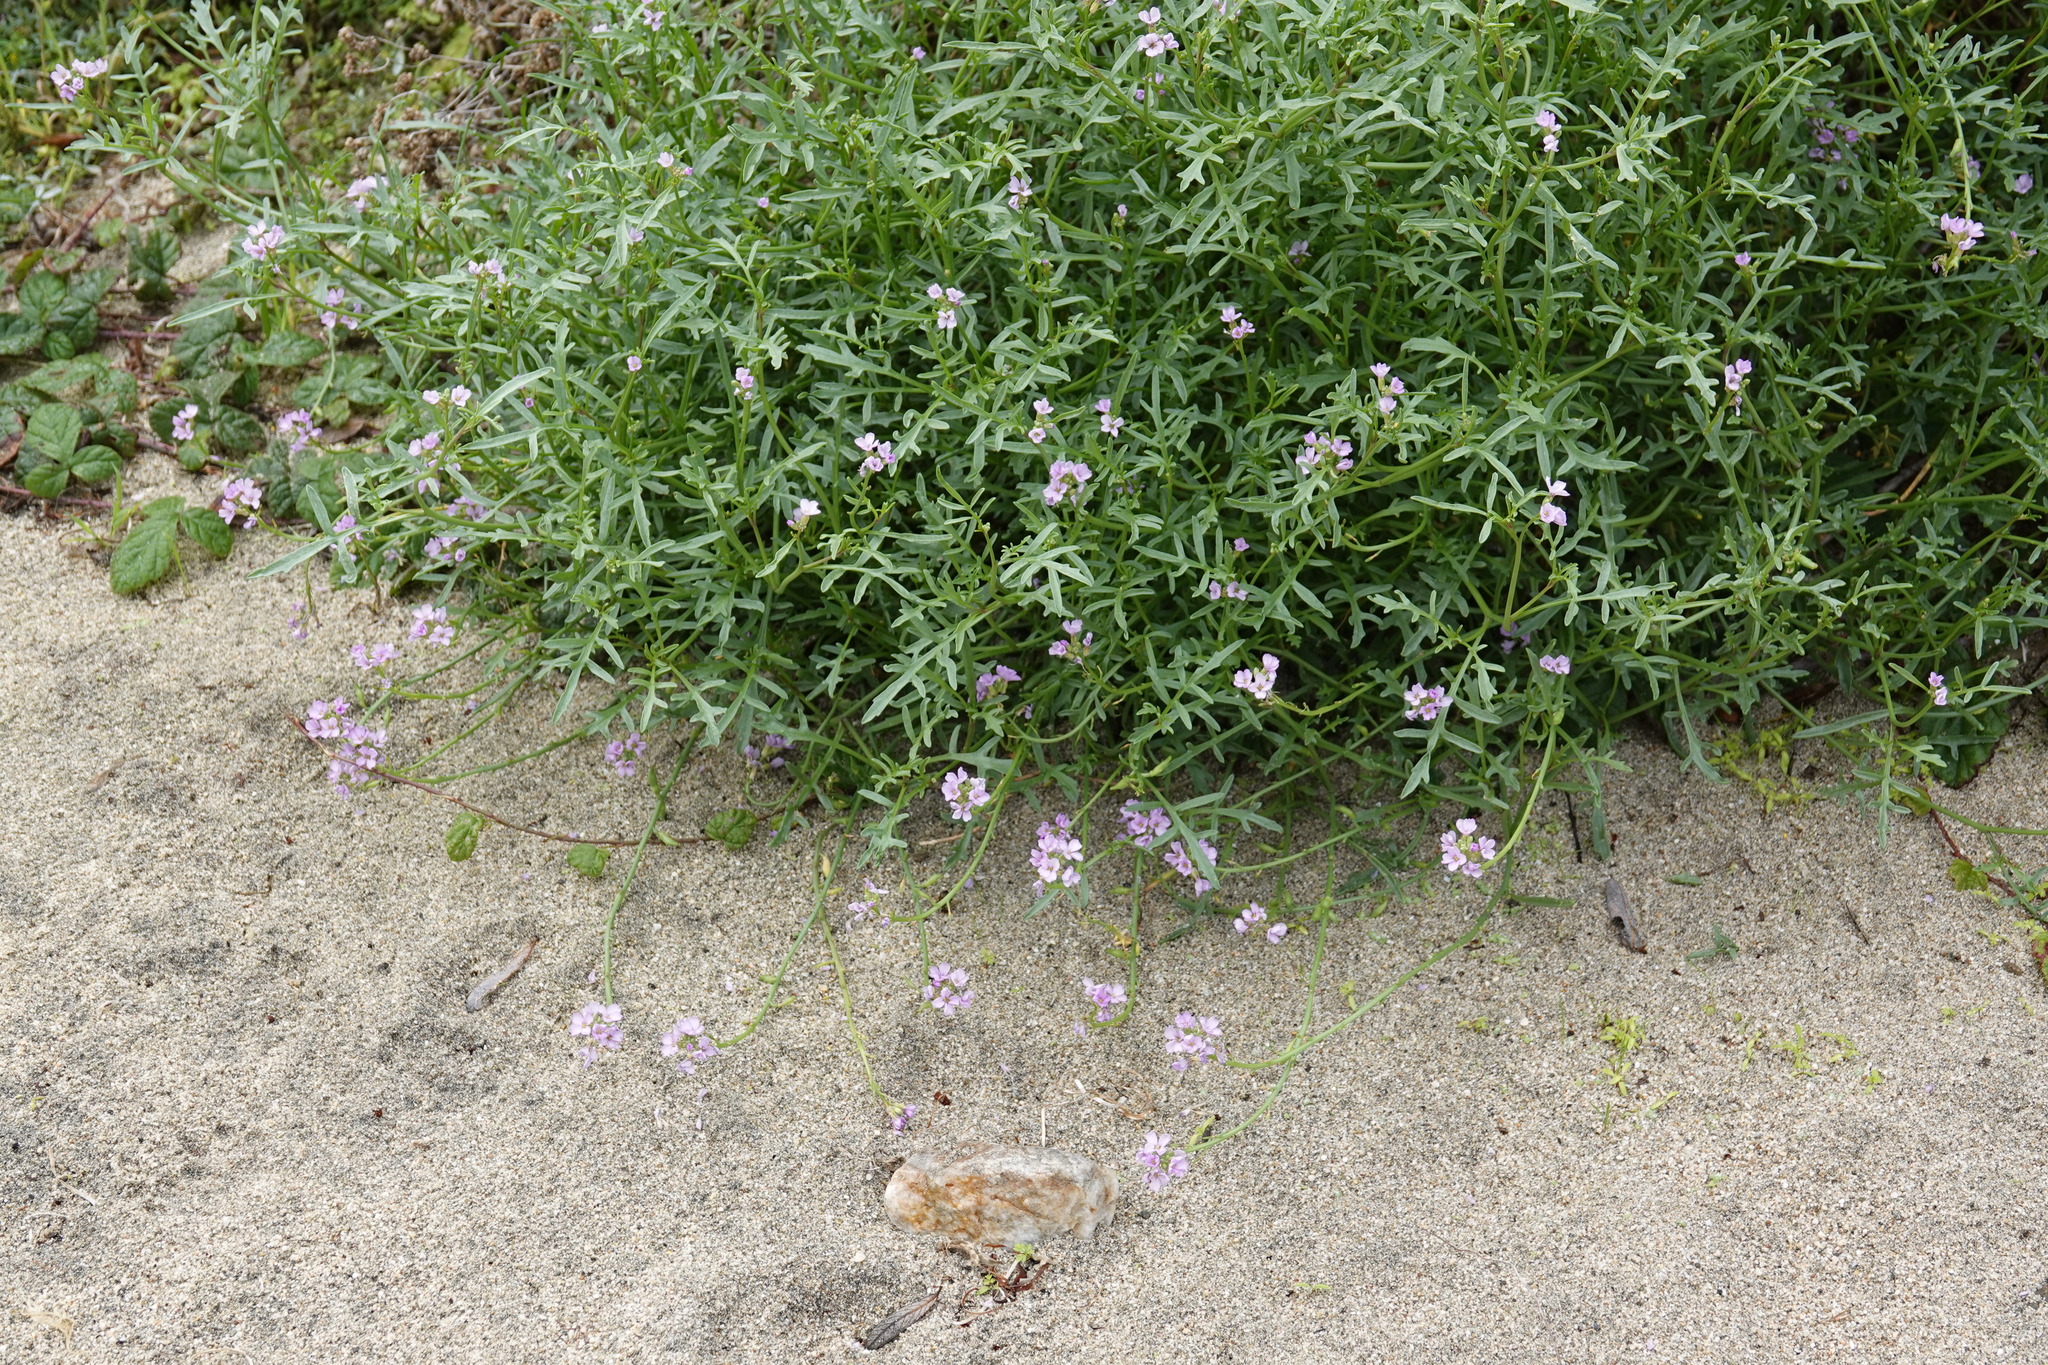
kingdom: Plantae
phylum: Tracheophyta
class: Magnoliopsida
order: Brassicales
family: Brassicaceae
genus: Cakile
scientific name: Cakile maritima
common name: Sea rocket
